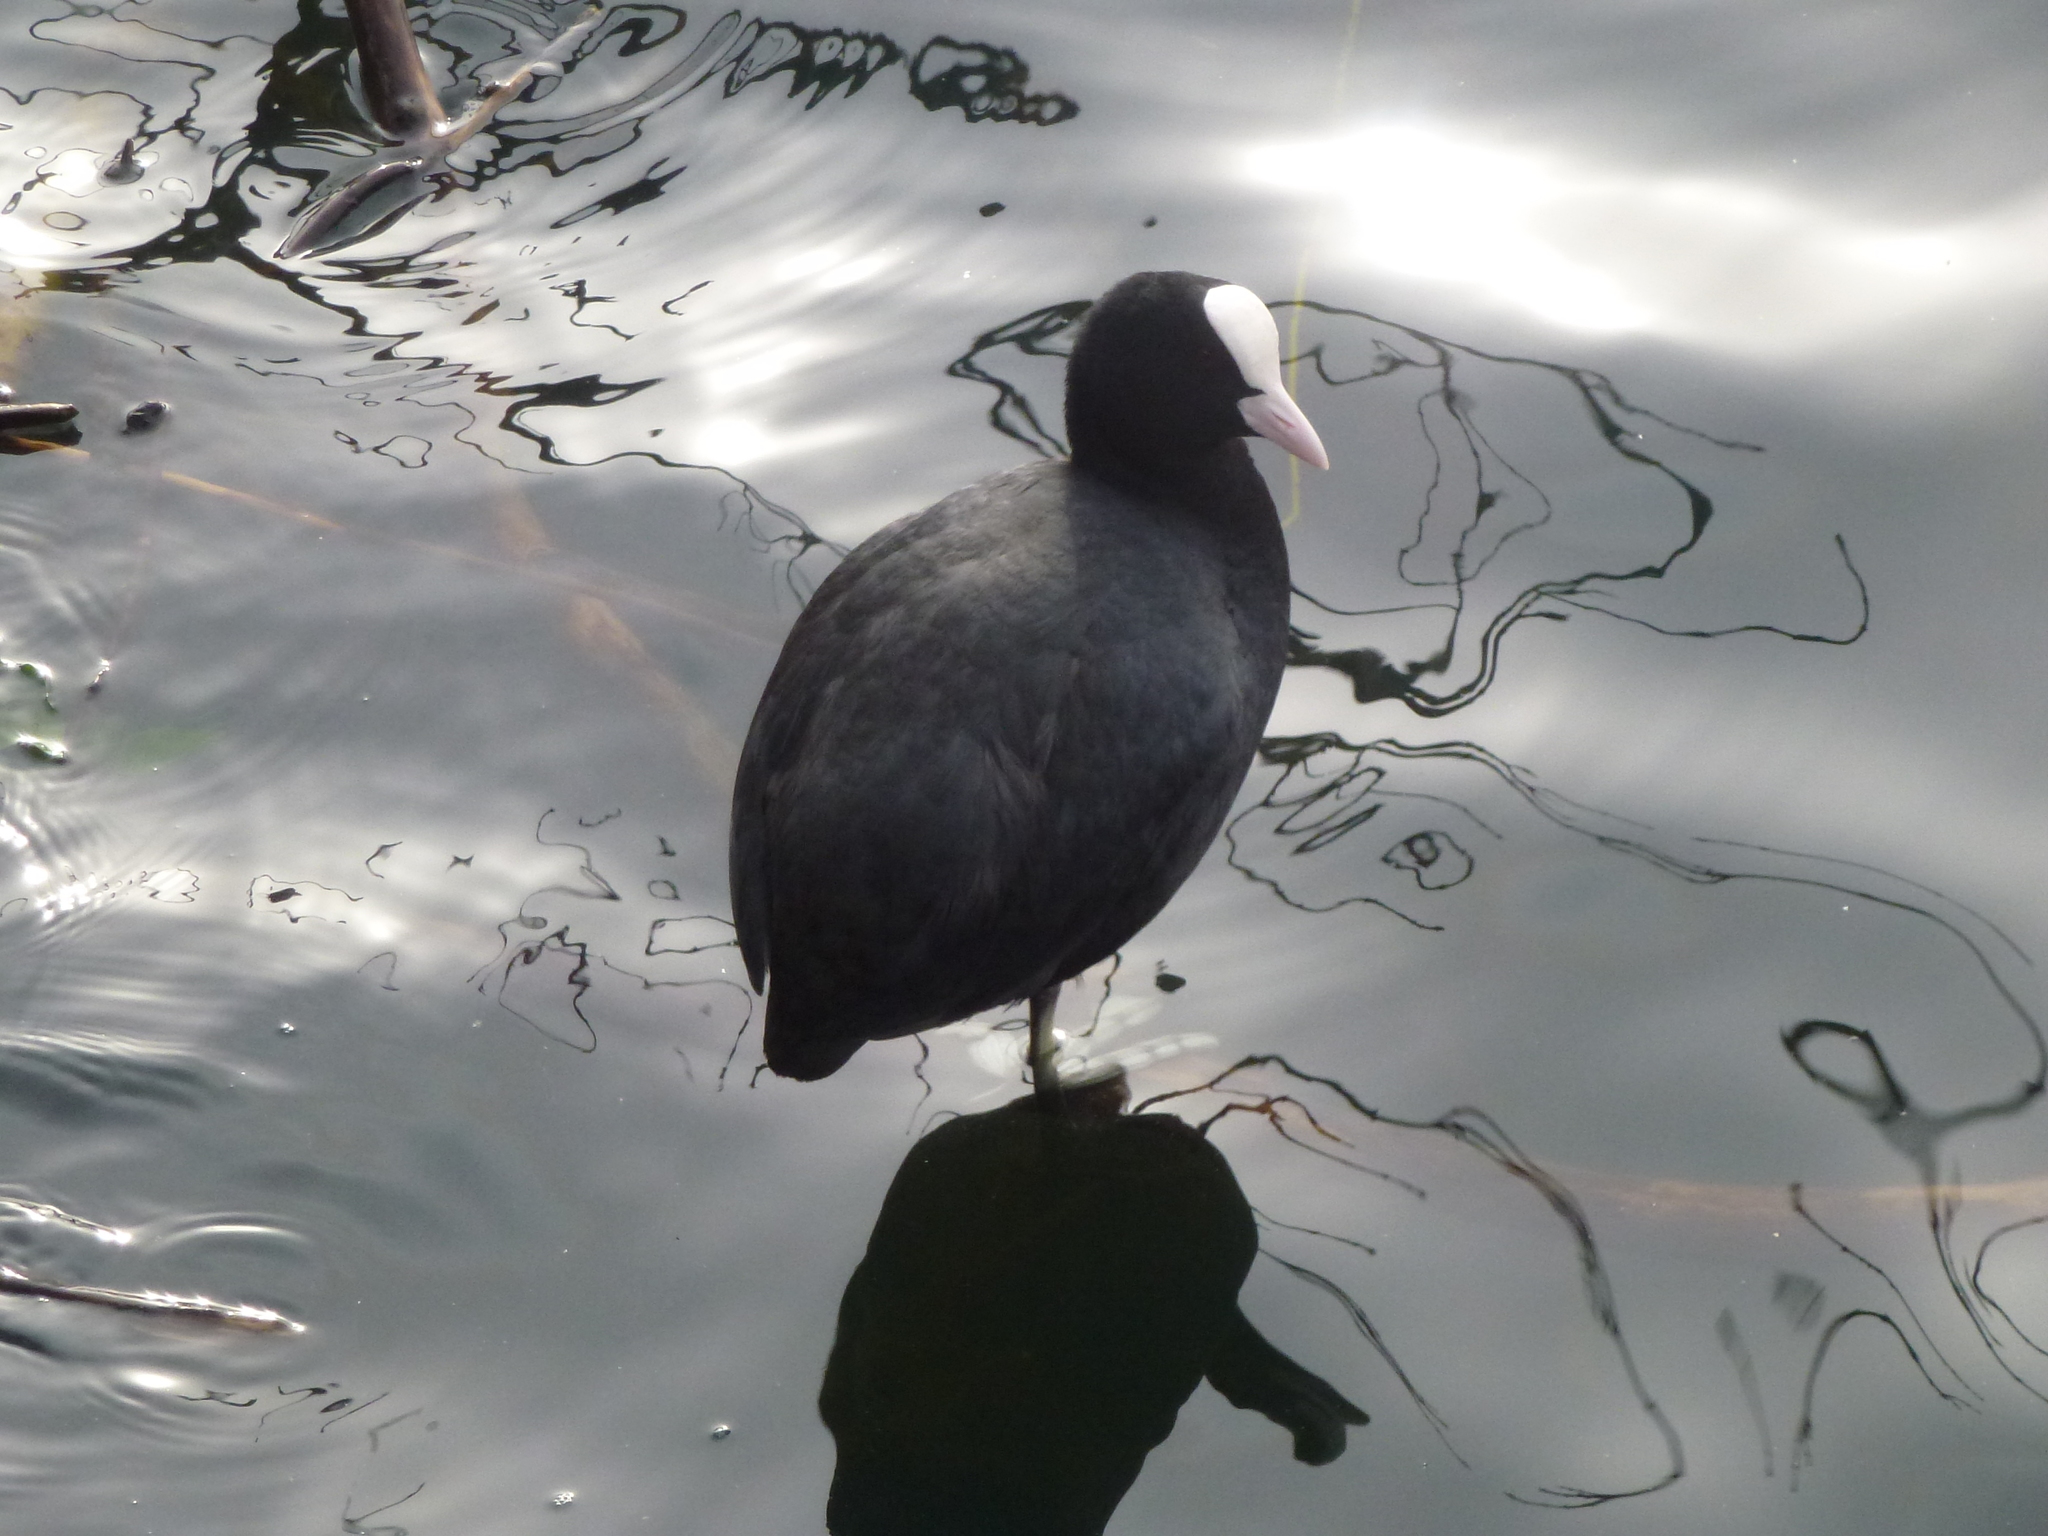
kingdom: Animalia
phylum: Chordata
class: Aves
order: Gruiformes
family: Rallidae
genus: Fulica
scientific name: Fulica atra
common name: Eurasian coot
